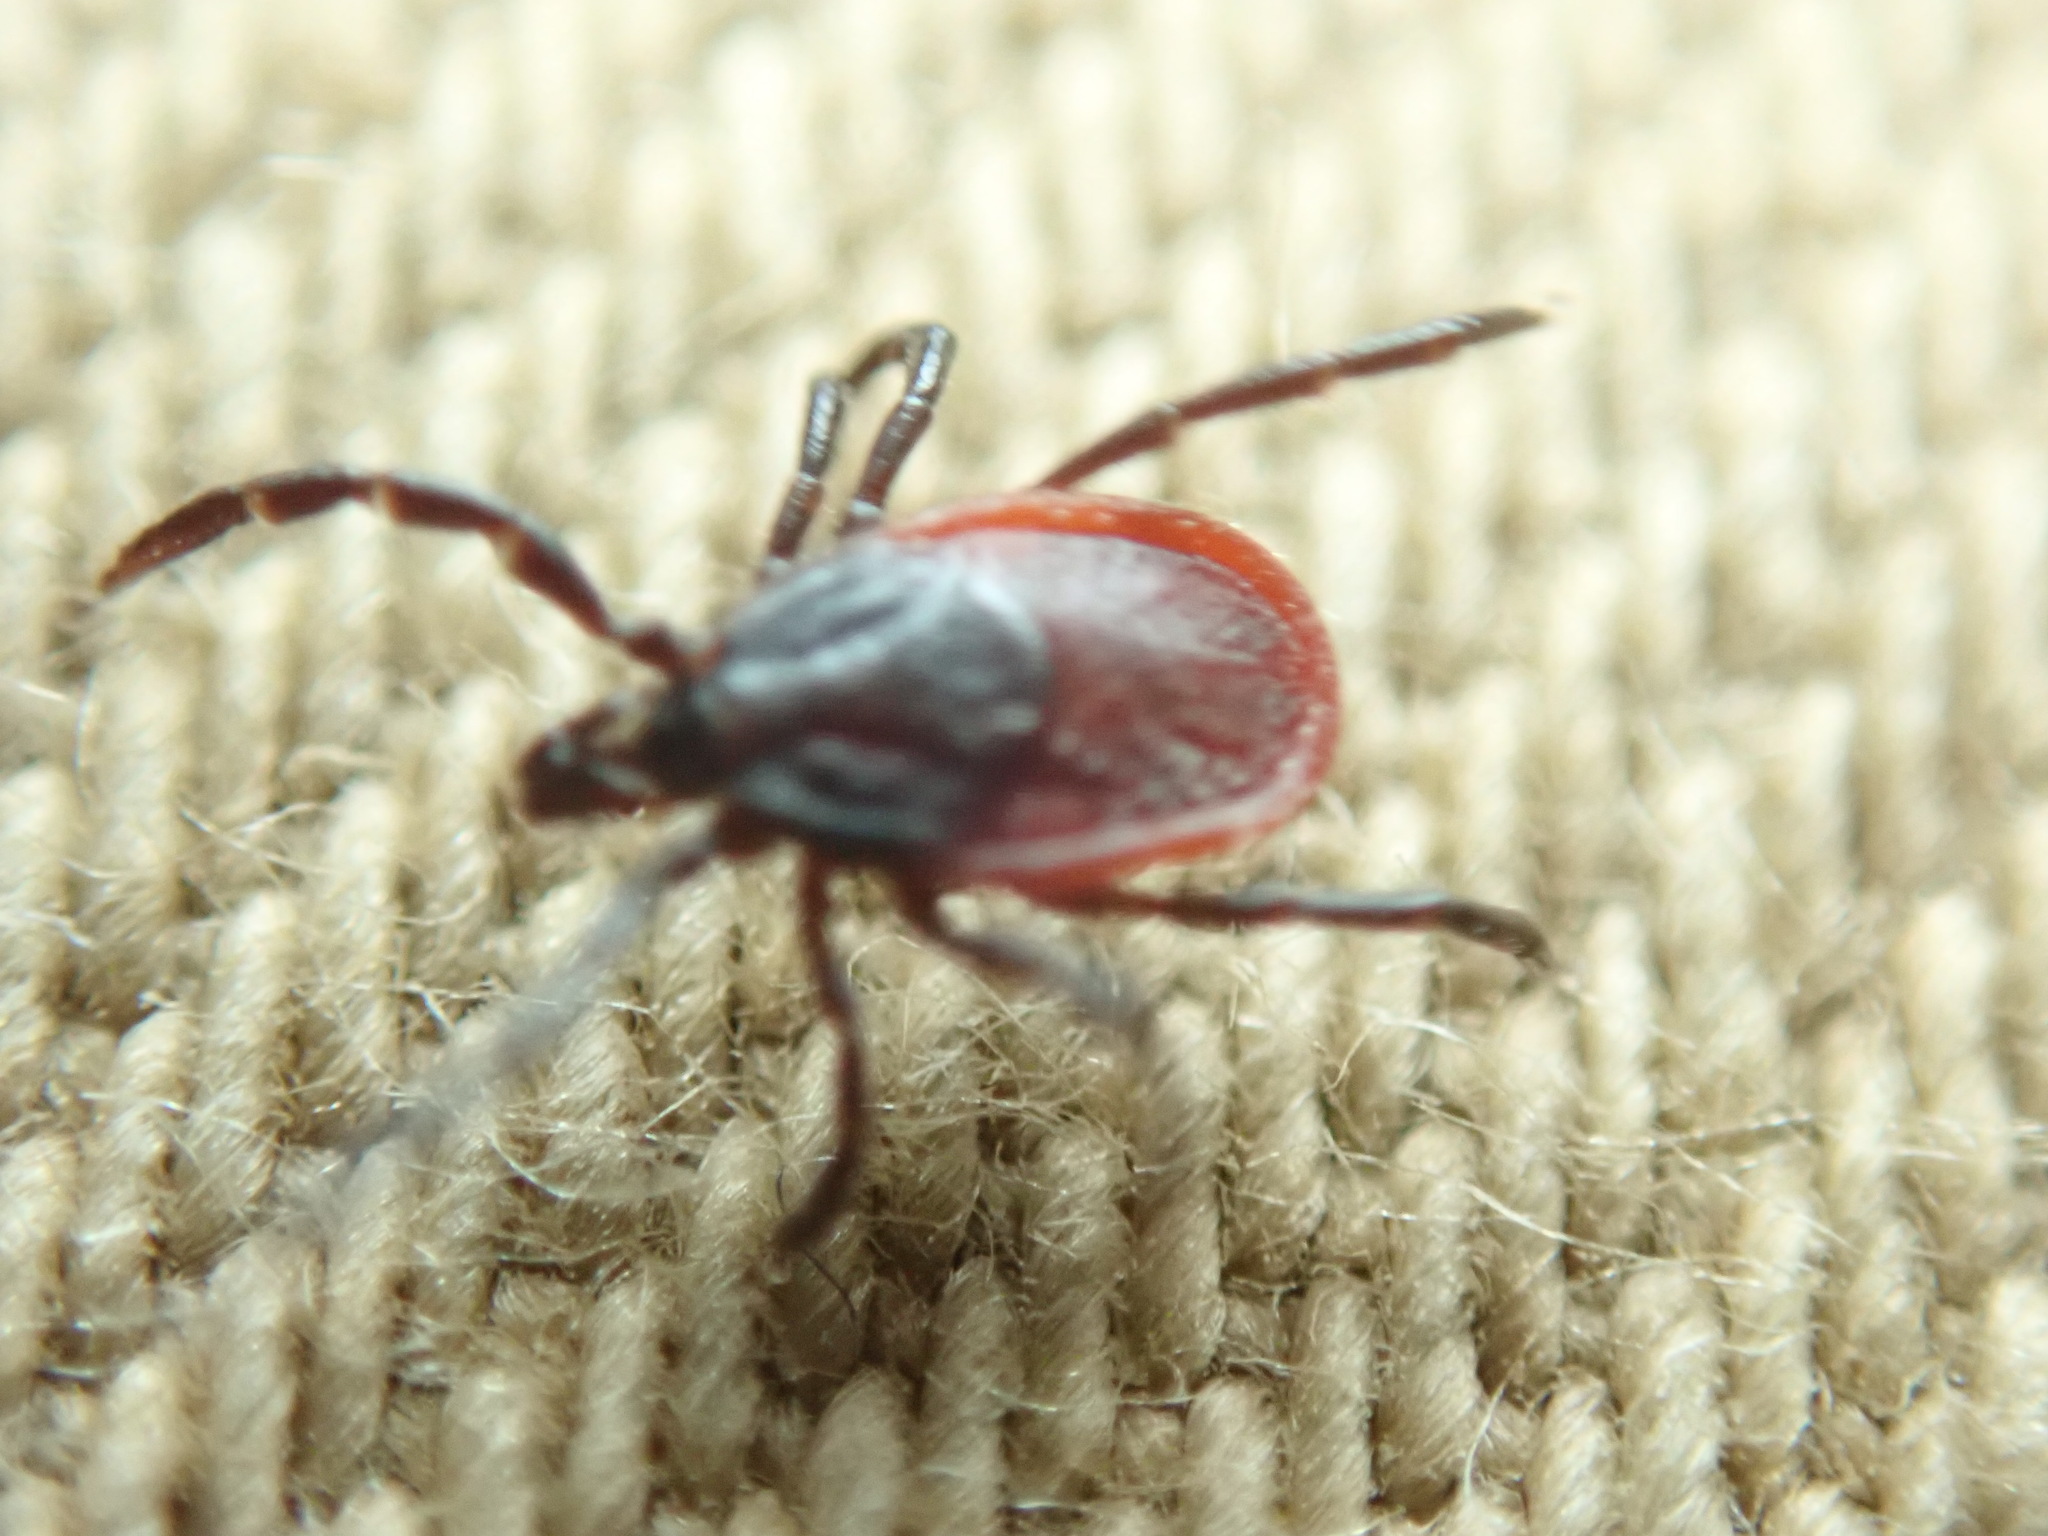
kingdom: Animalia
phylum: Arthropoda
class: Arachnida
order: Ixodida
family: Ixodidae
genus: Ixodes
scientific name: Ixodes pacificus
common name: California black-legged tick
